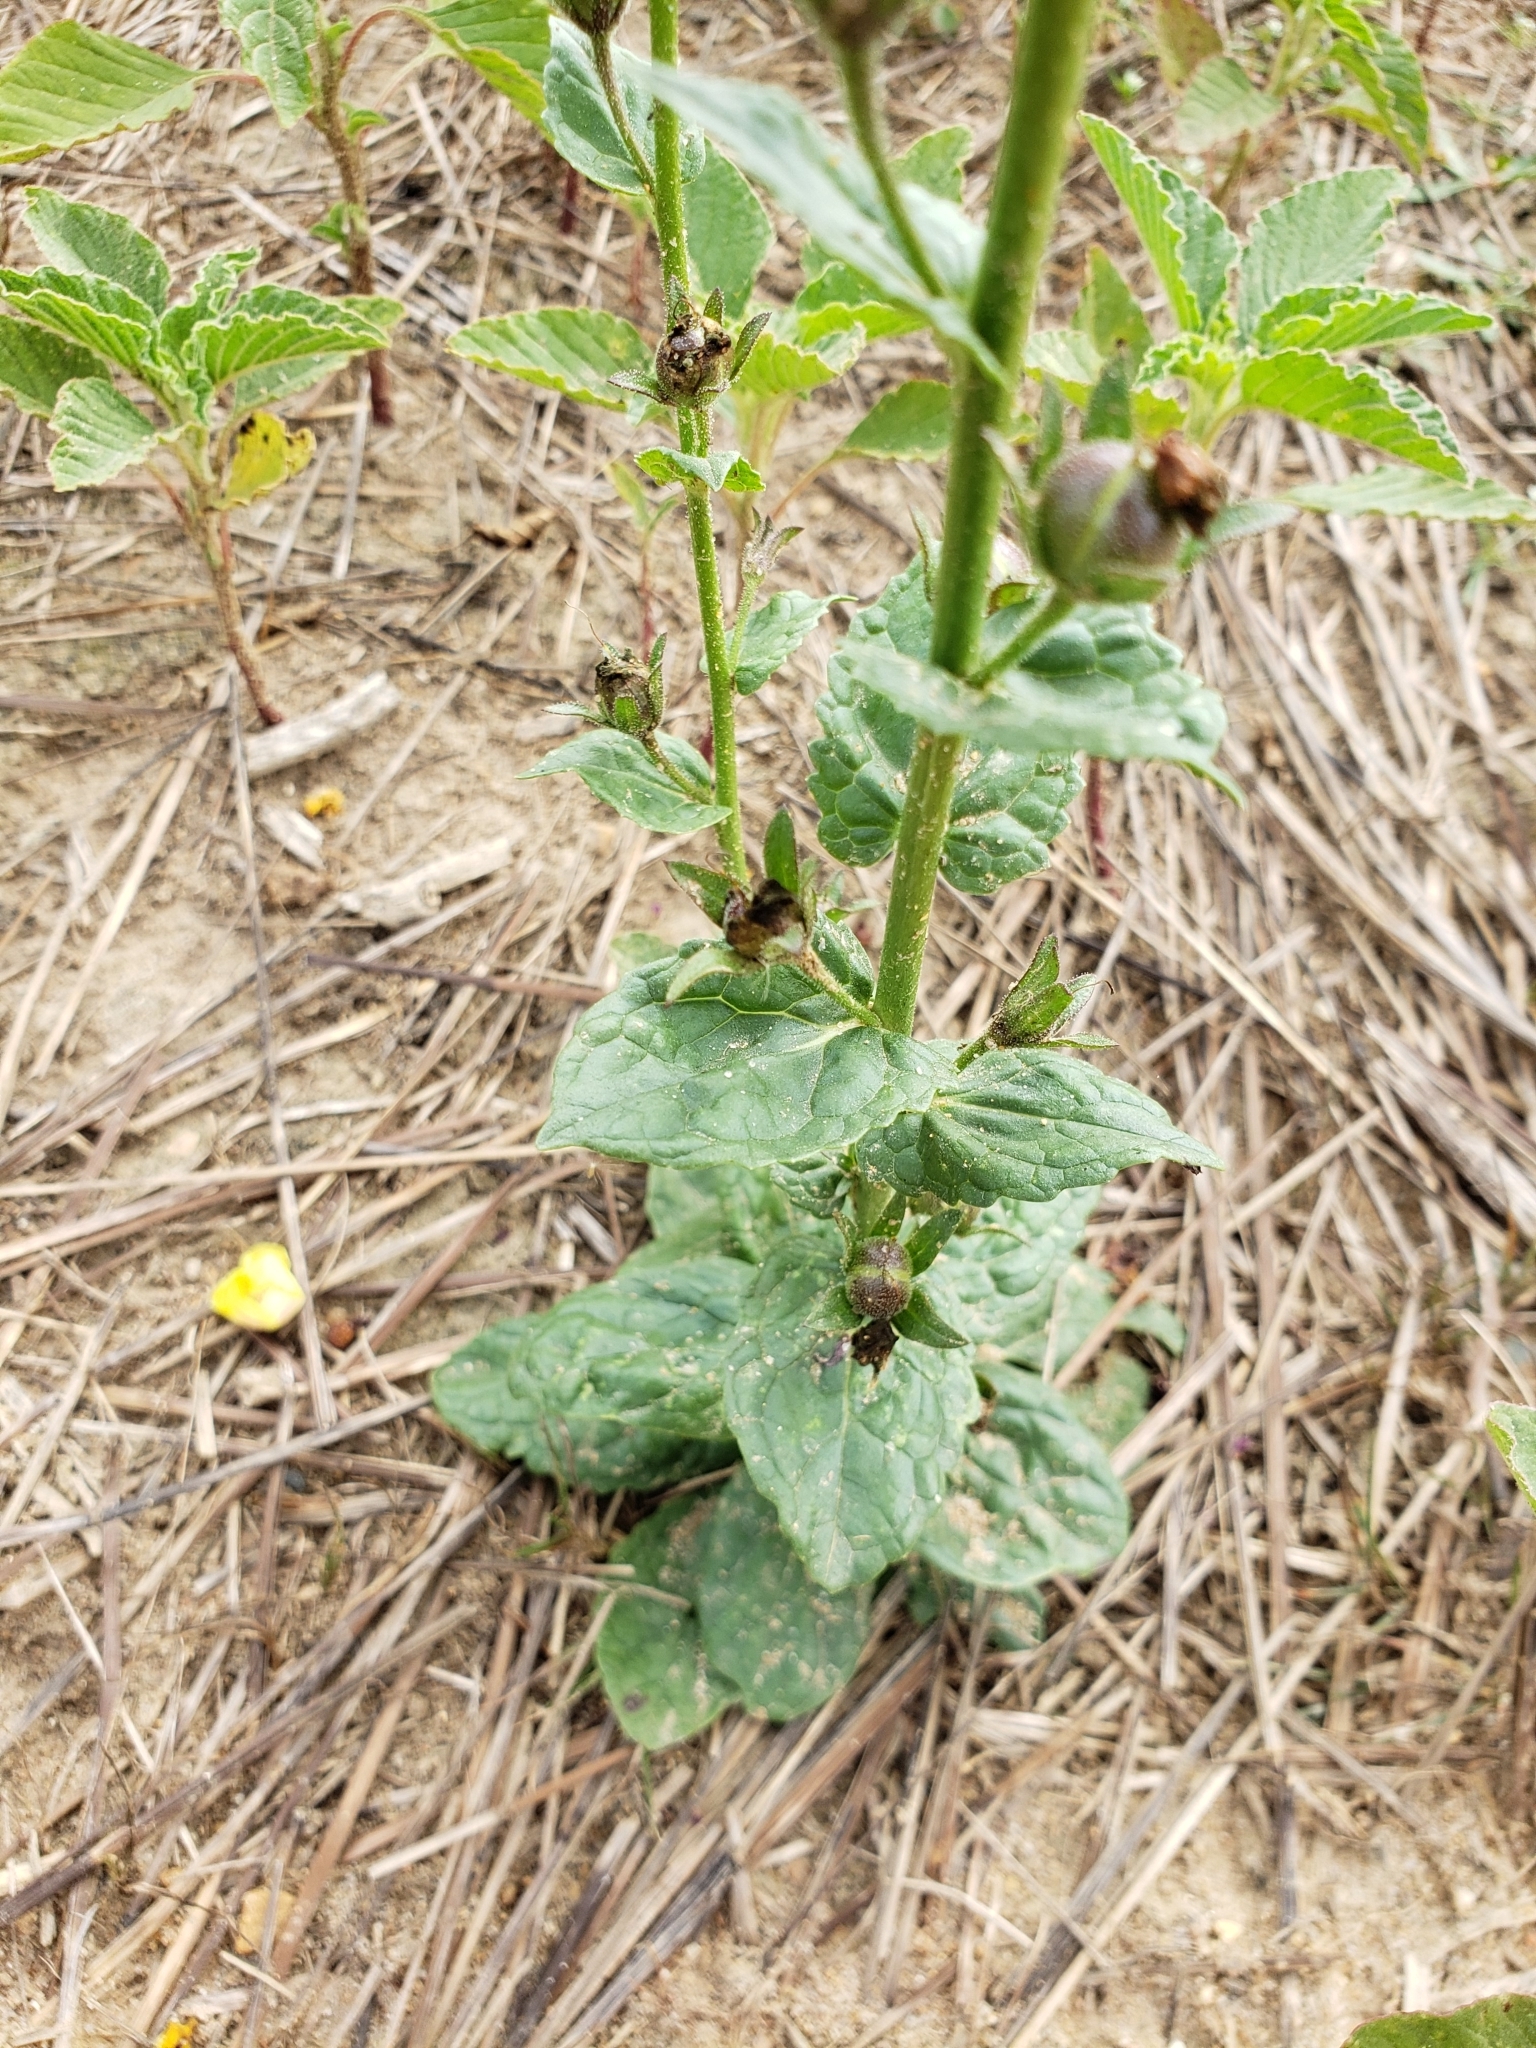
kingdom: Plantae
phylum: Tracheophyta
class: Magnoliopsida
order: Lamiales
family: Scrophulariaceae
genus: Verbascum
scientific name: Verbascum blattaria
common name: Moth mullein
